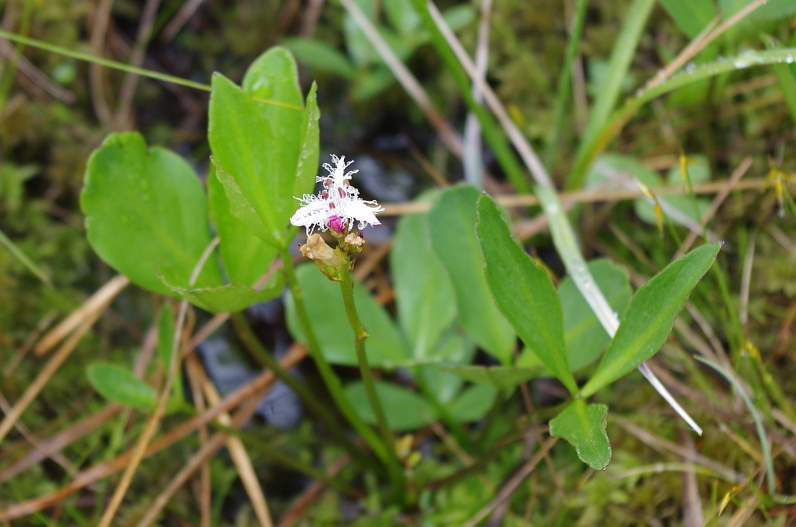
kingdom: Plantae
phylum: Tracheophyta
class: Magnoliopsida
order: Asterales
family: Menyanthaceae
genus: Menyanthes
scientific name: Menyanthes trifoliata
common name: Bogbean
